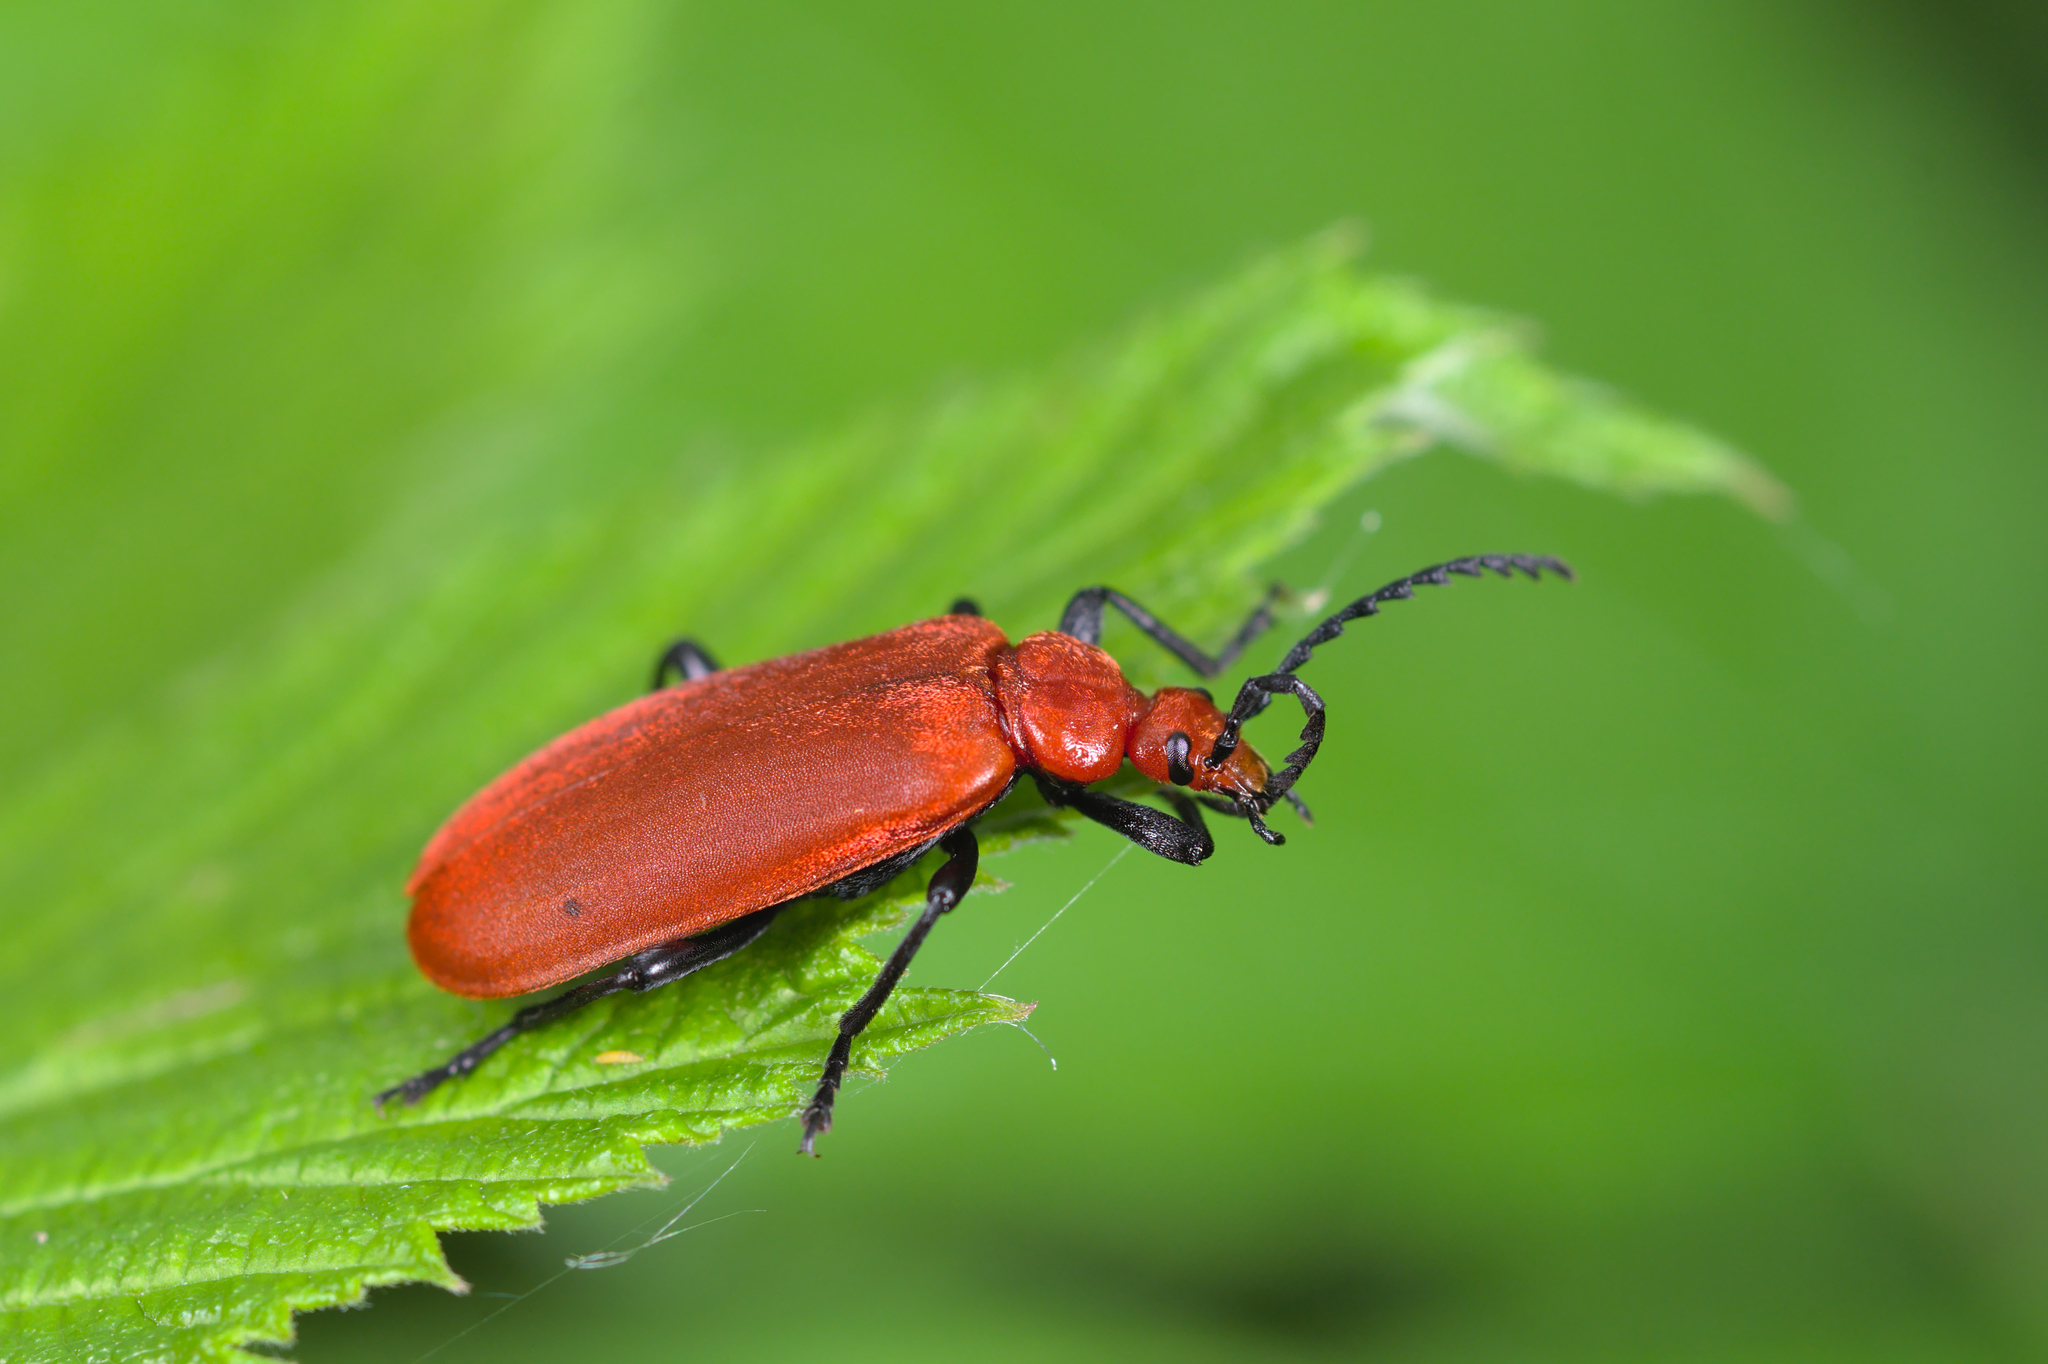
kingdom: Animalia
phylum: Arthropoda
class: Insecta
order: Coleoptera
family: Pyrochroidae
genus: Pyrochroa
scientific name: Pyrochroa serraticornis
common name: Red-headed cardinal beetle
